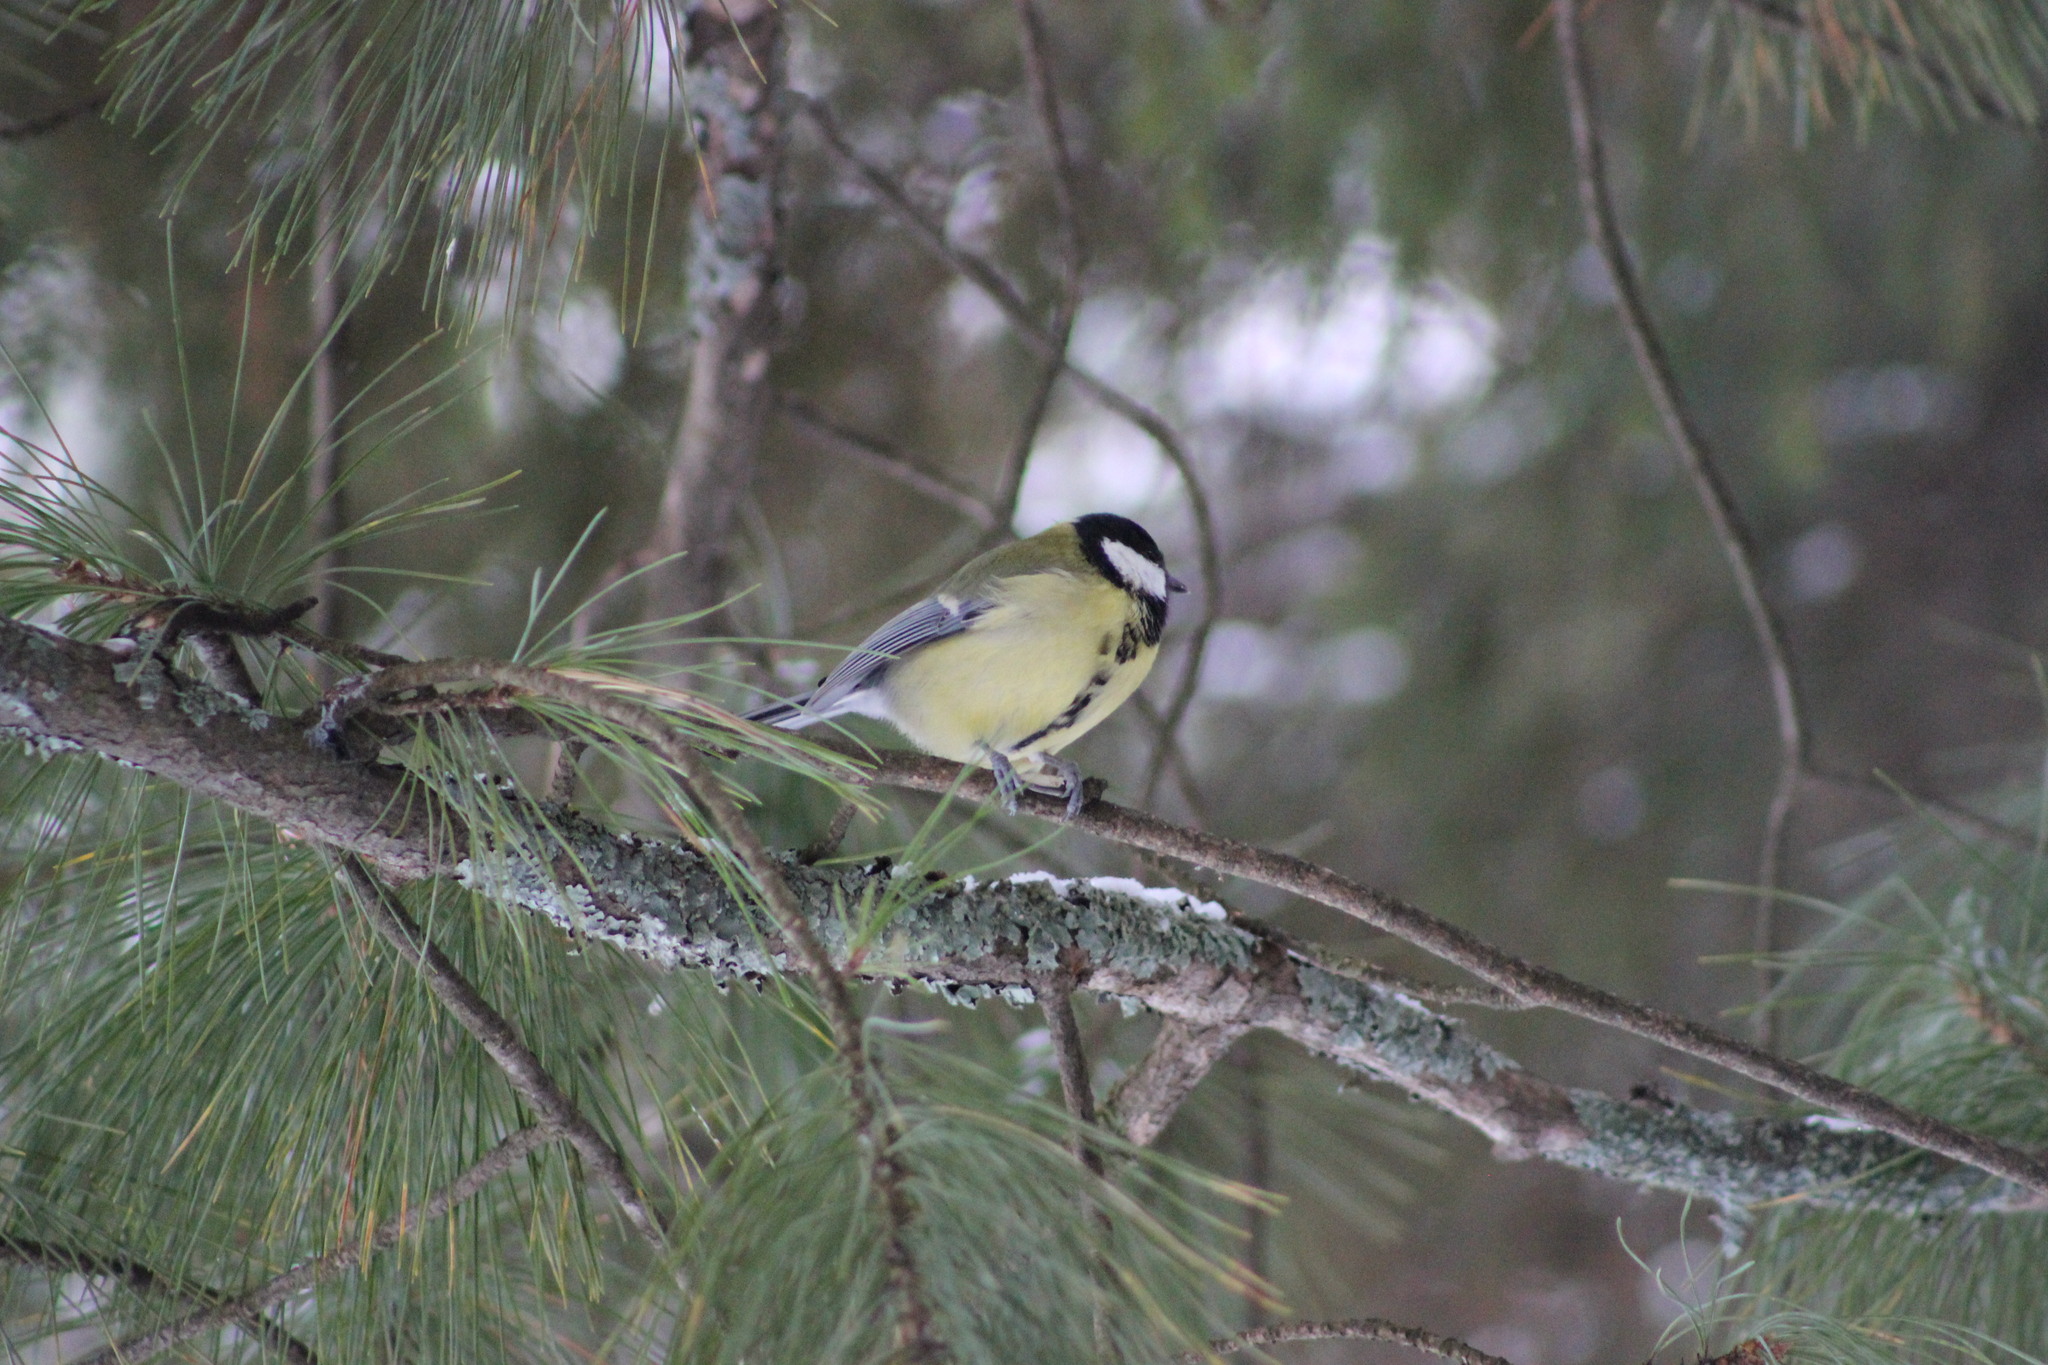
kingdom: Animalia
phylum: Chordata
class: Aves
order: Passeriformes
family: Paridae
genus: Parus
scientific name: Parus major
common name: Great tit
